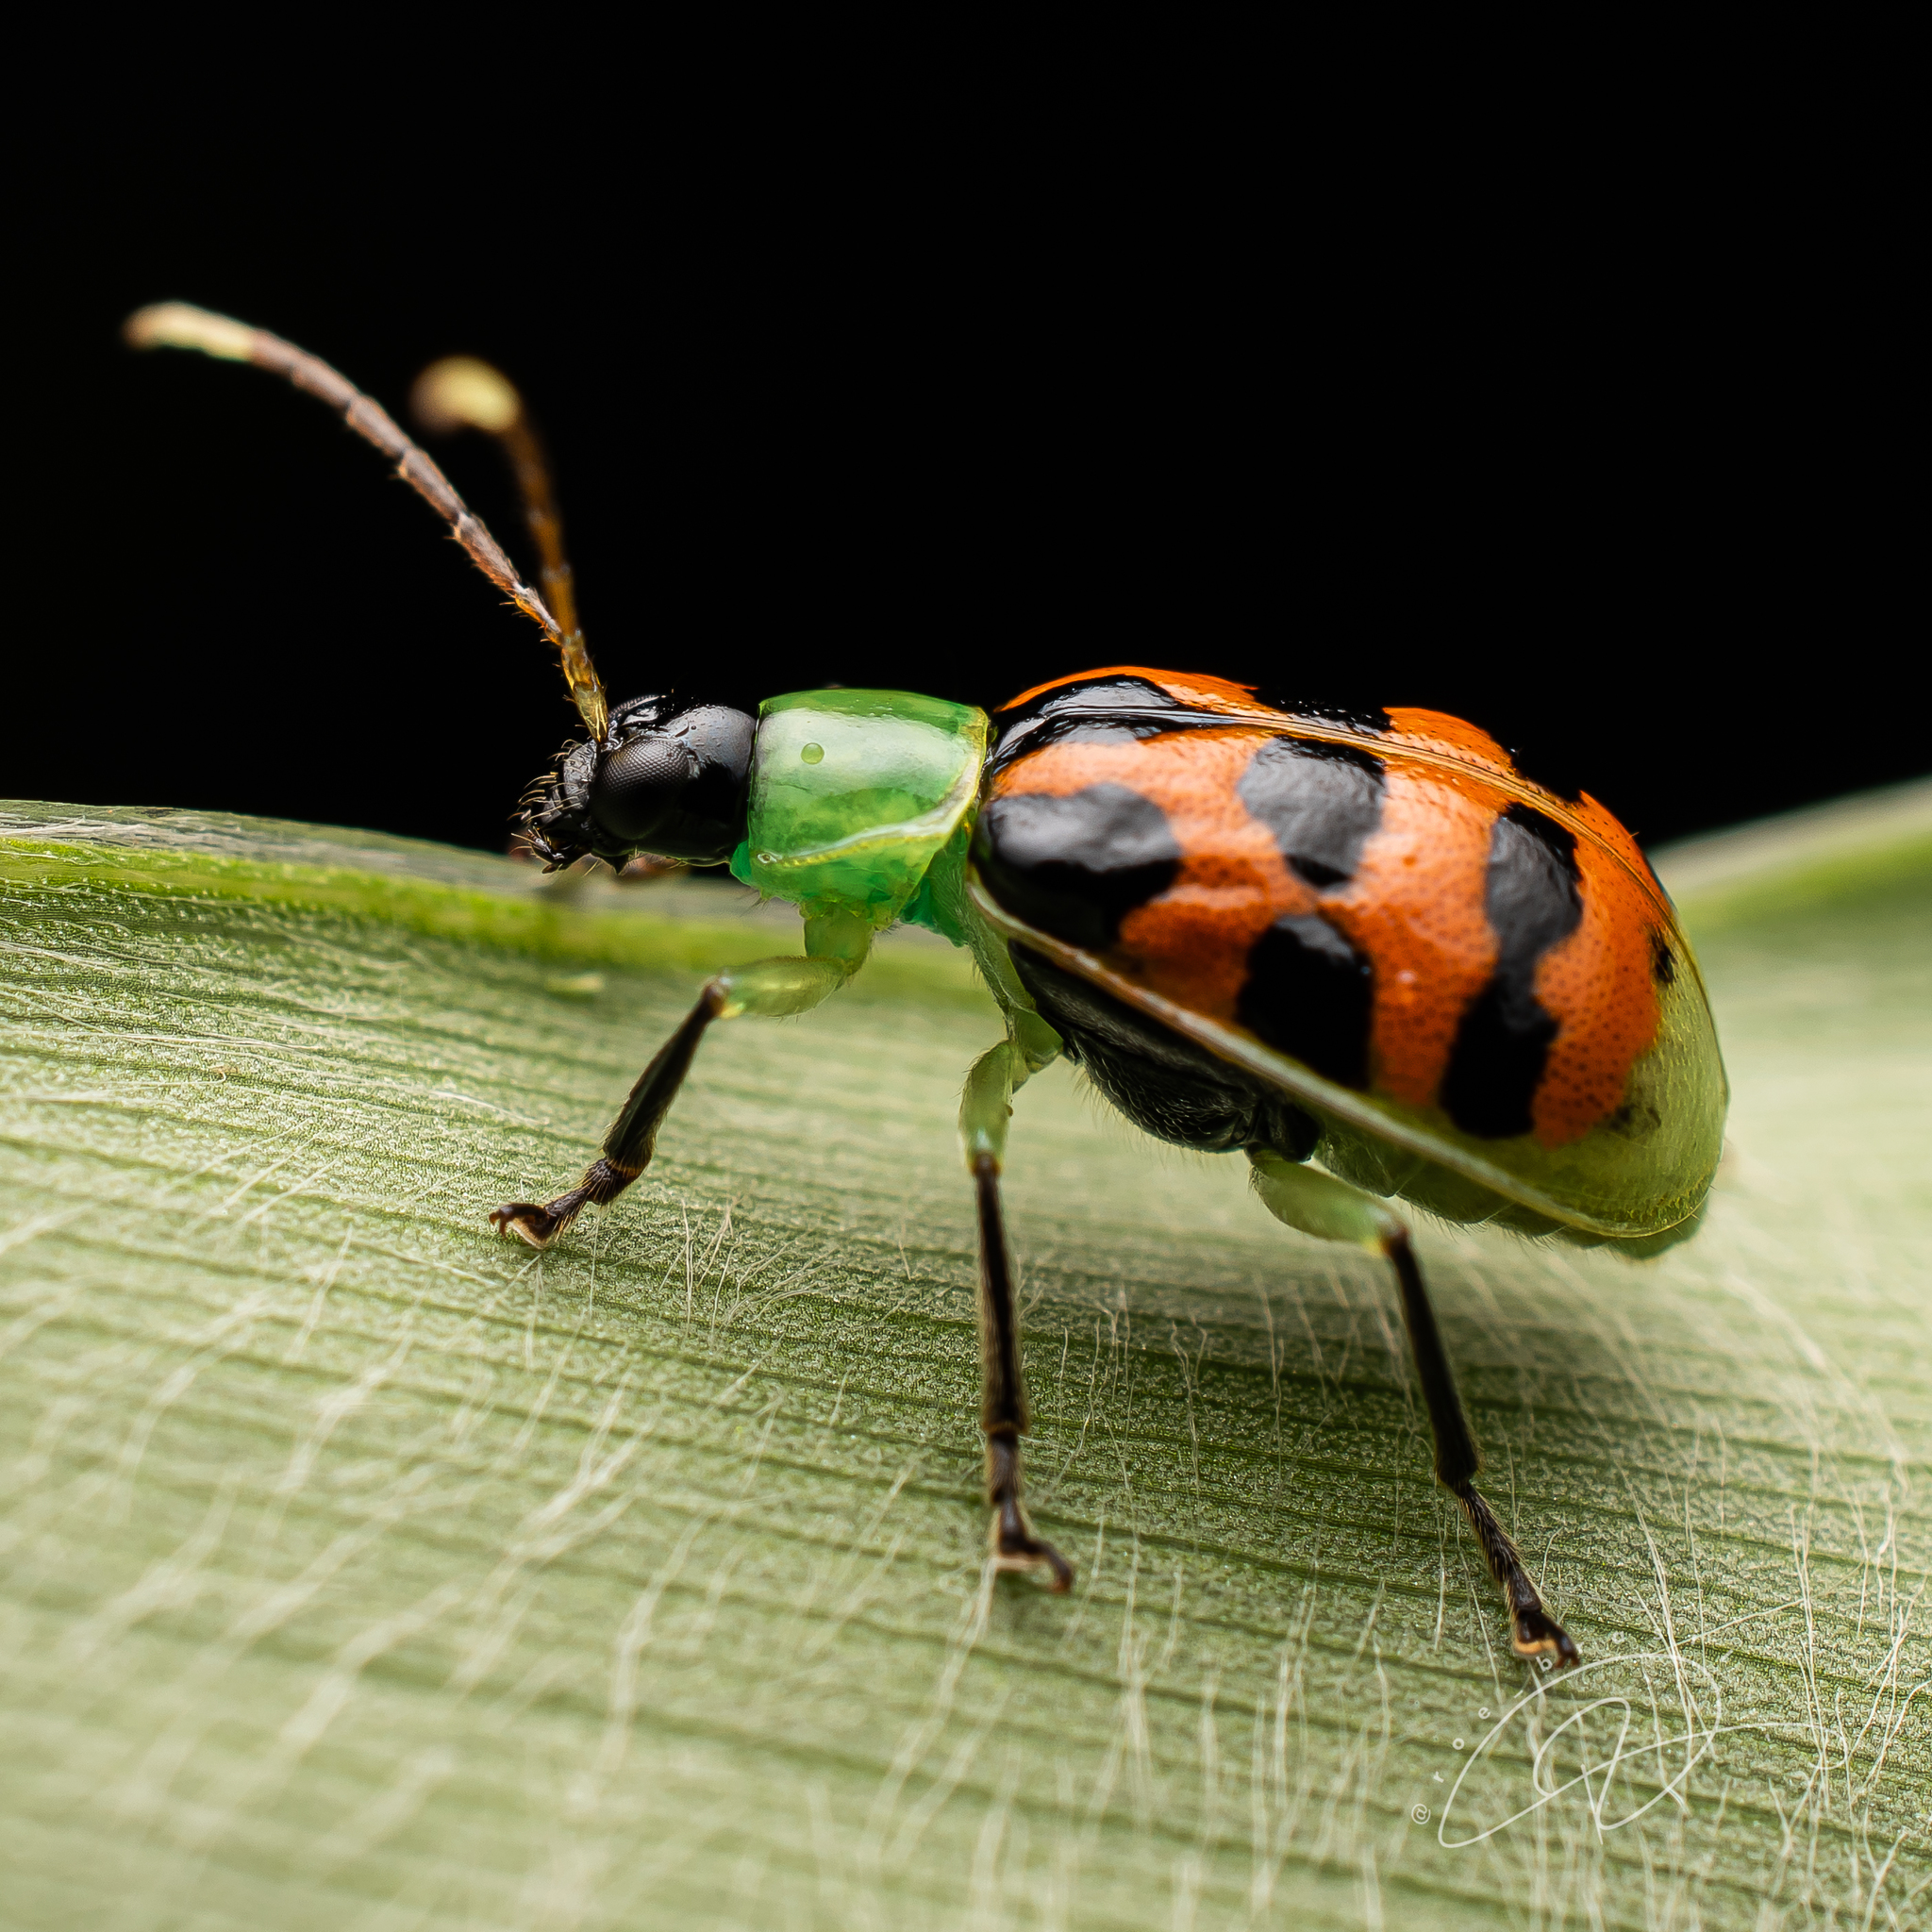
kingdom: Animalia
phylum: Arthropoda
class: Insecta
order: Coleoptera
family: Chrysomelidae
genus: Diabrotica
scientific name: Diabrotica limitata
